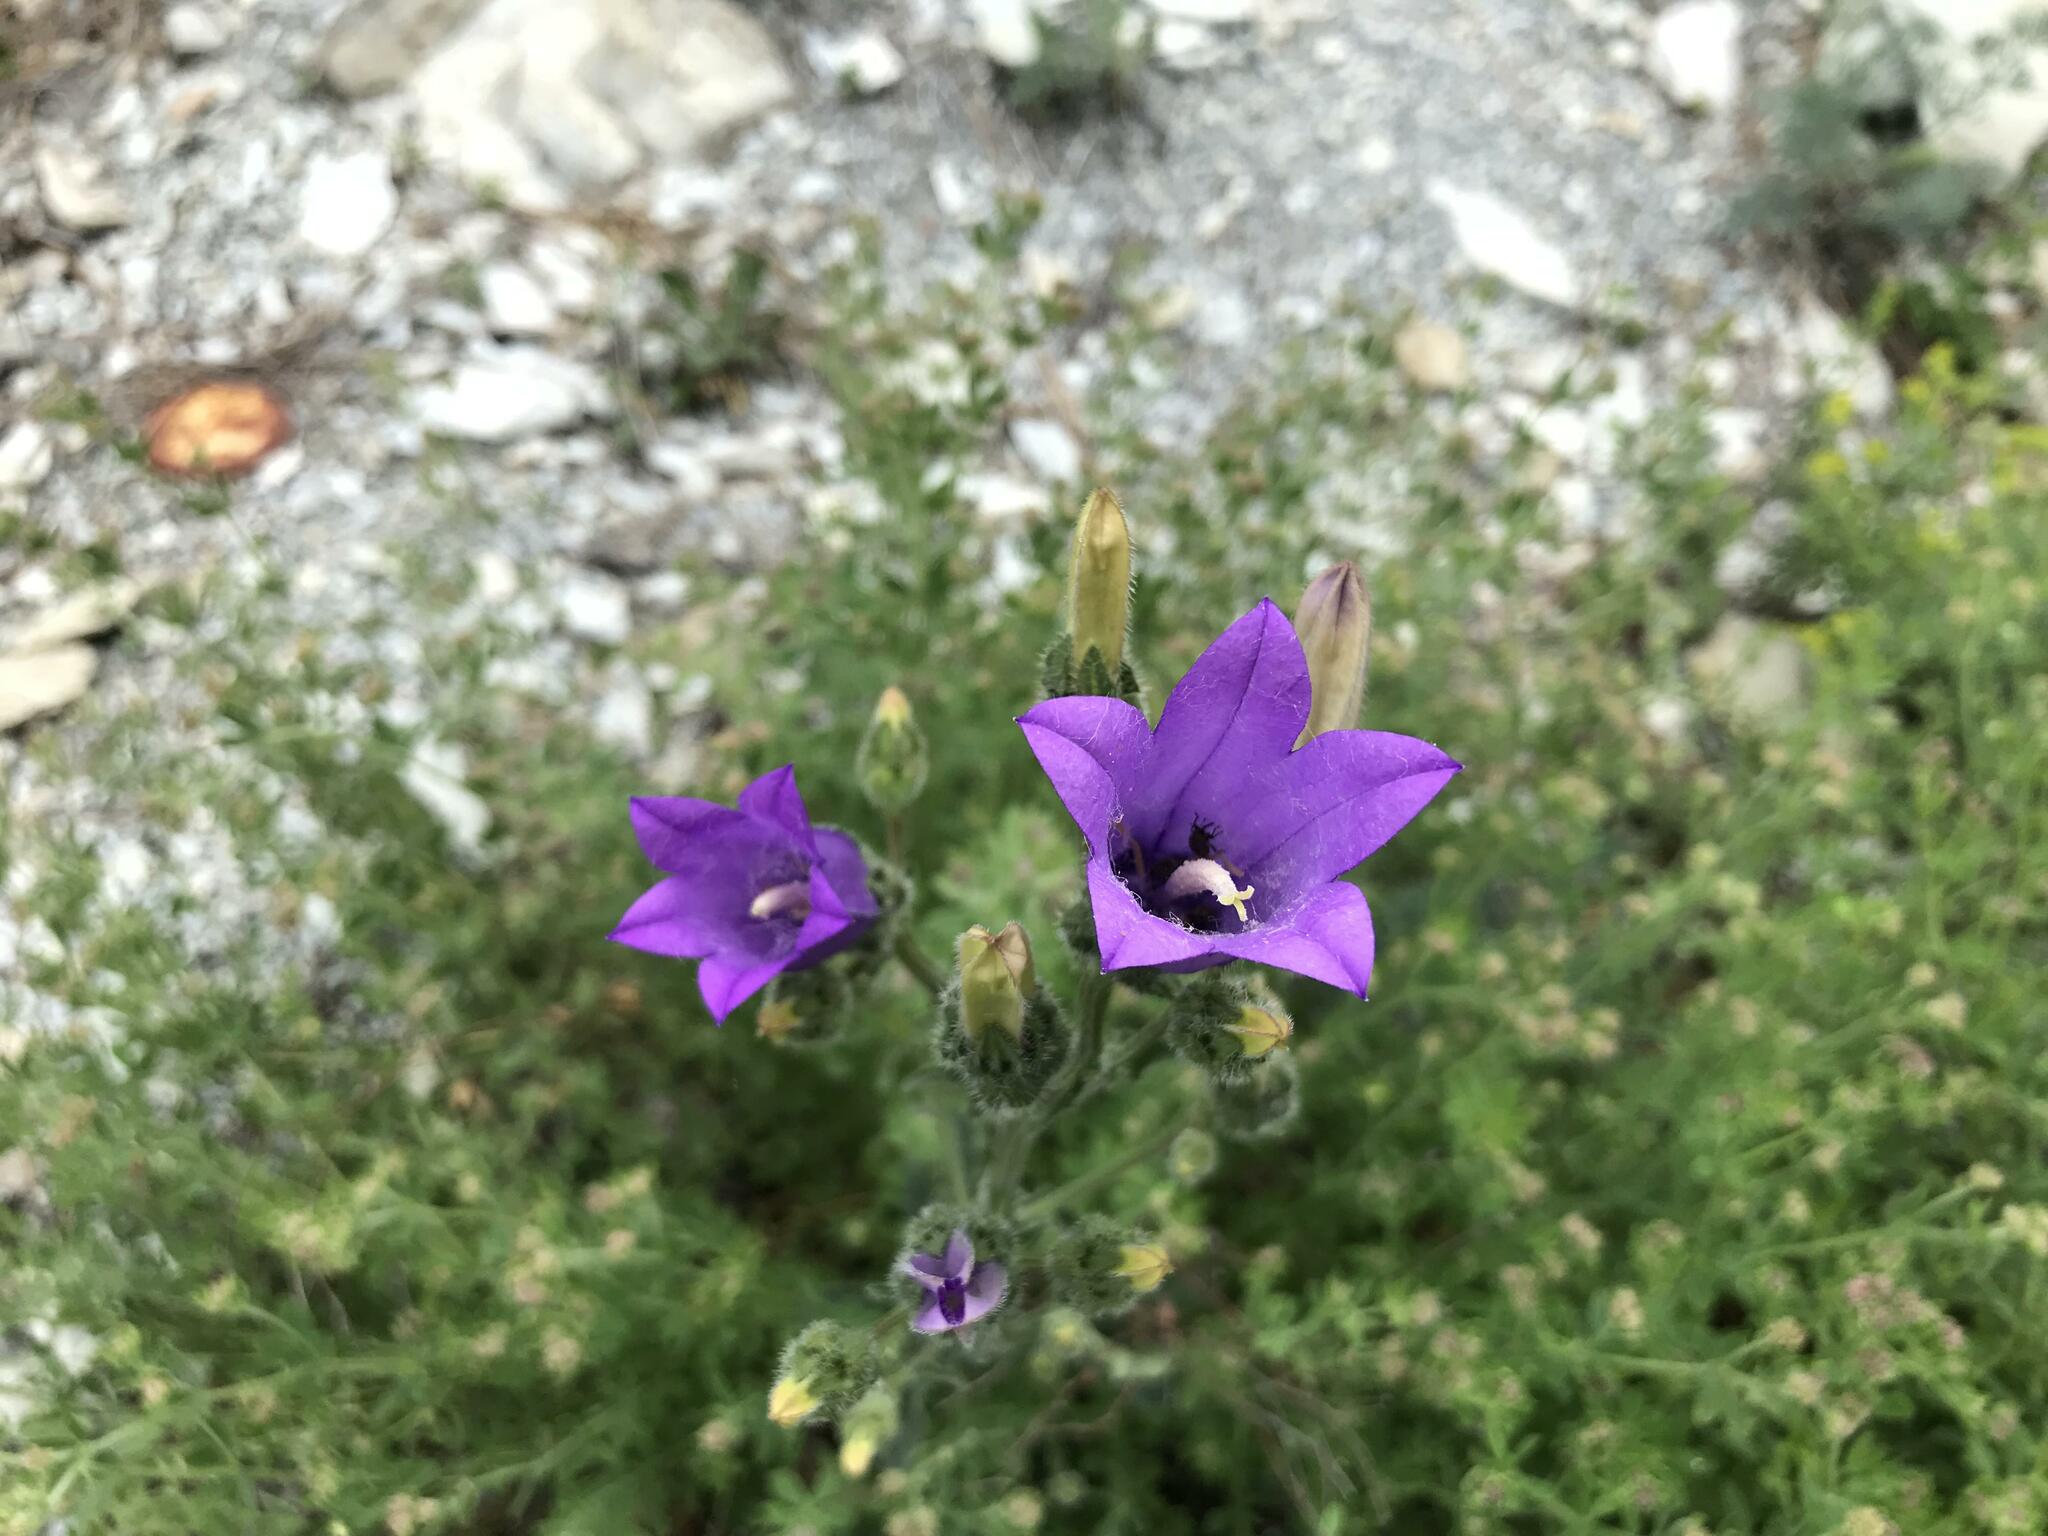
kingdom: Plantae
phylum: Tracheophyta
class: Magnoliopsida
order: Asterales
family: Campanulaceae
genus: Campanula
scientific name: Campanula komarovii
